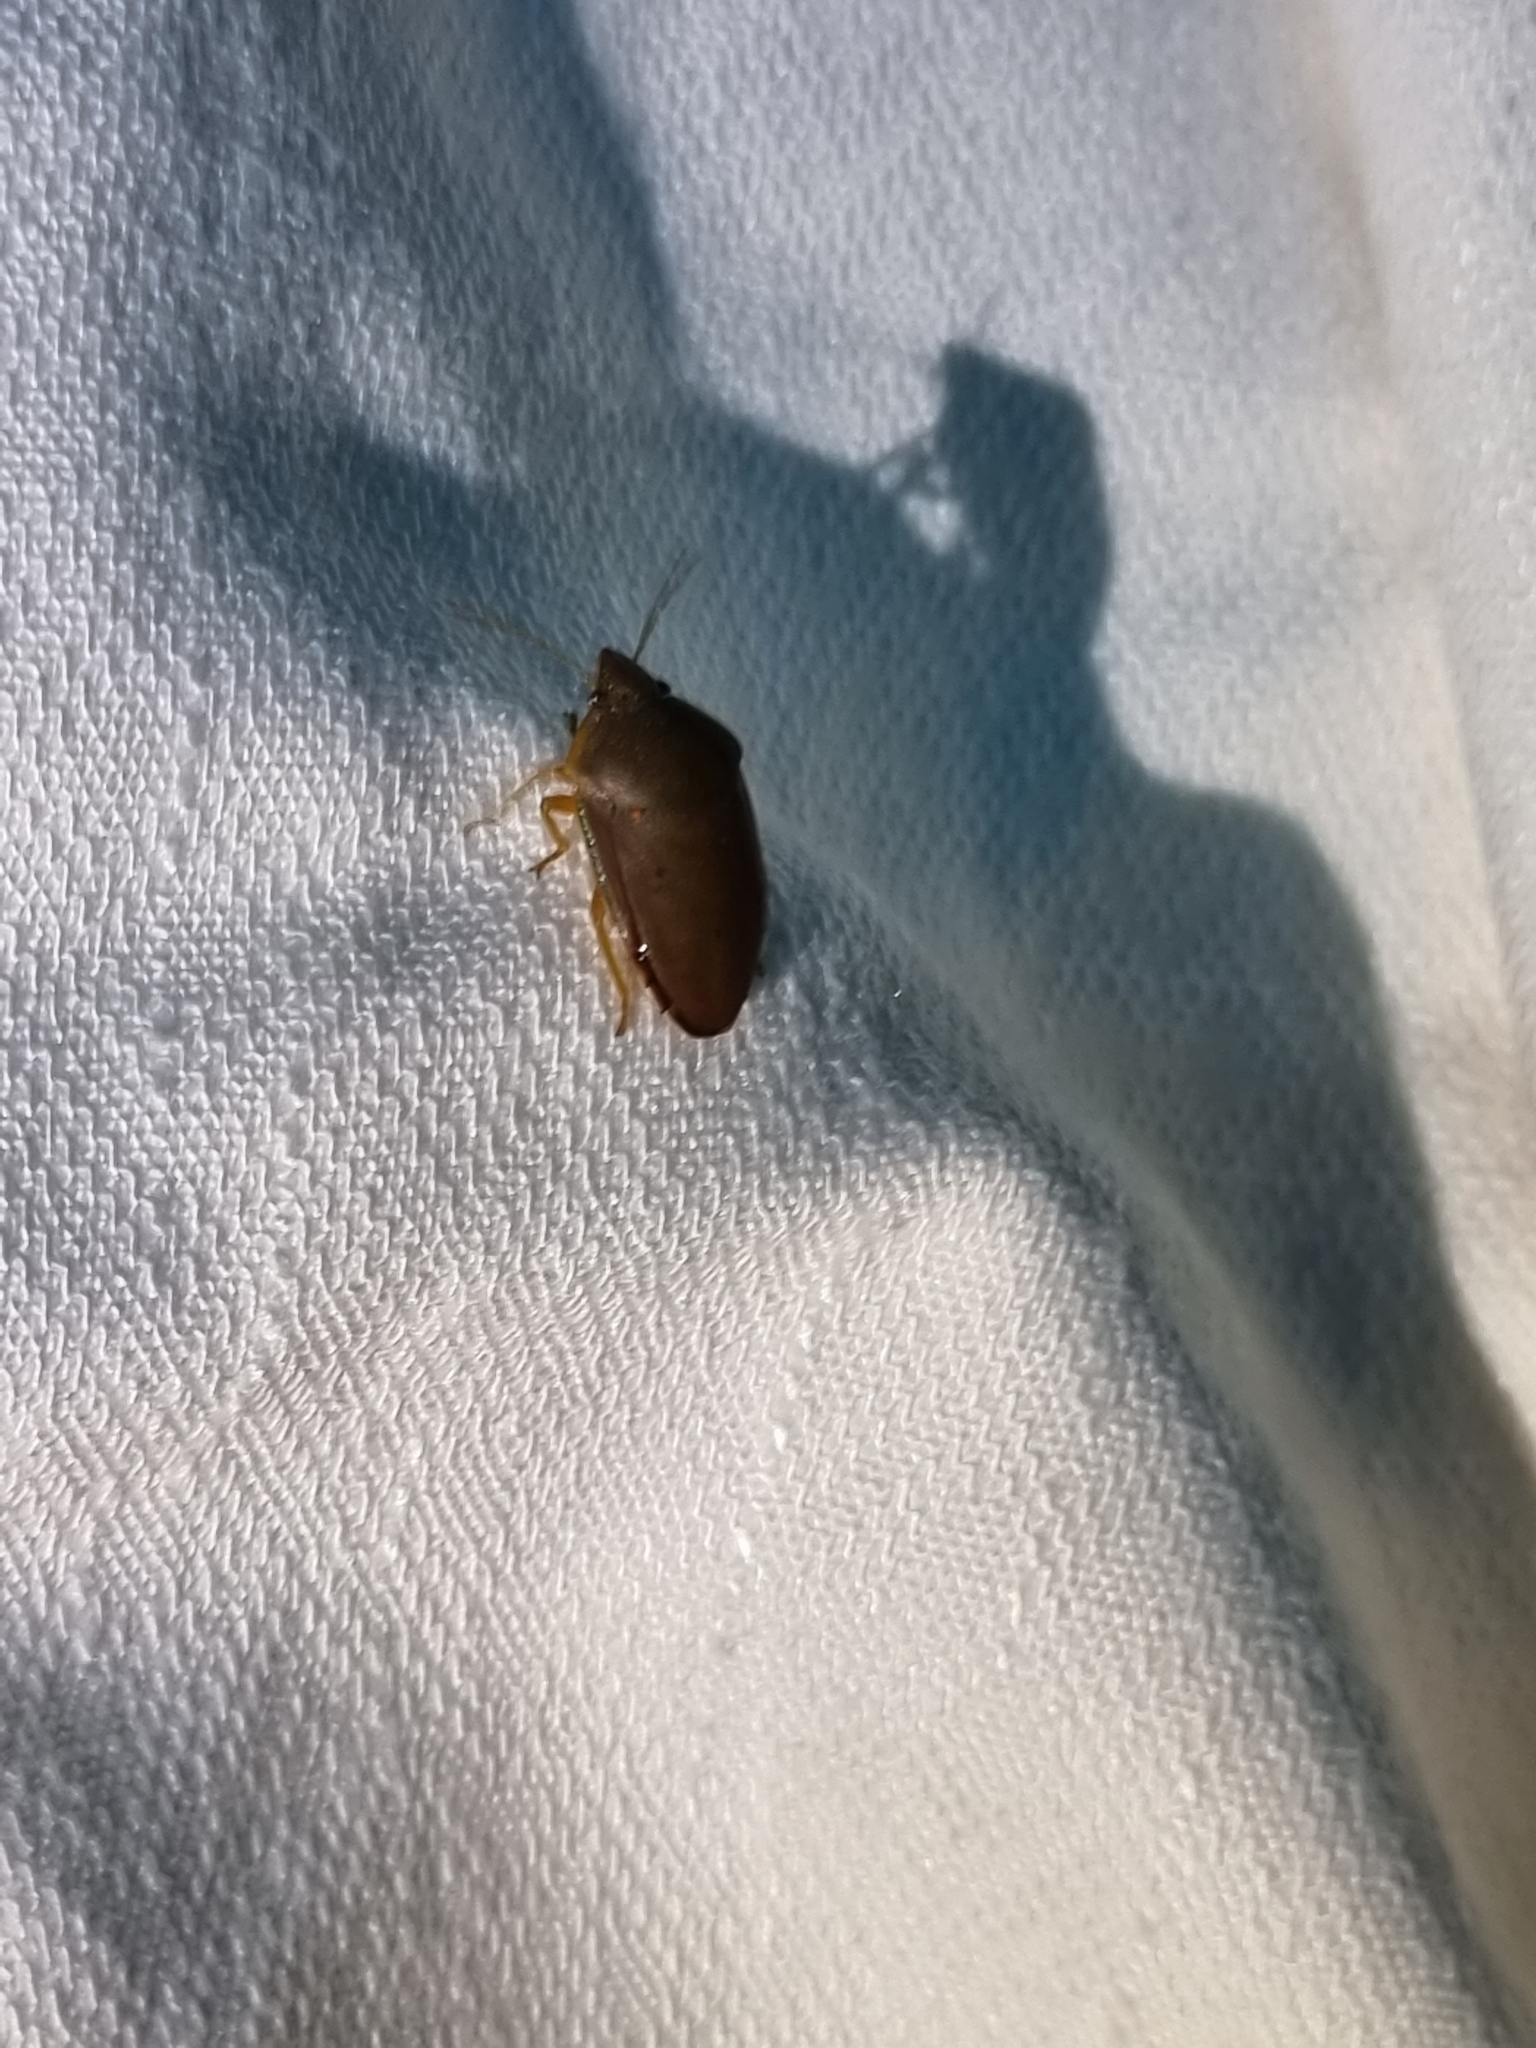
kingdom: Animalia
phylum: Arthropoda
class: Insecta
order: Hemiptera
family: Pentatomidae
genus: Coleotichus
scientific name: Coleotichus excellens
